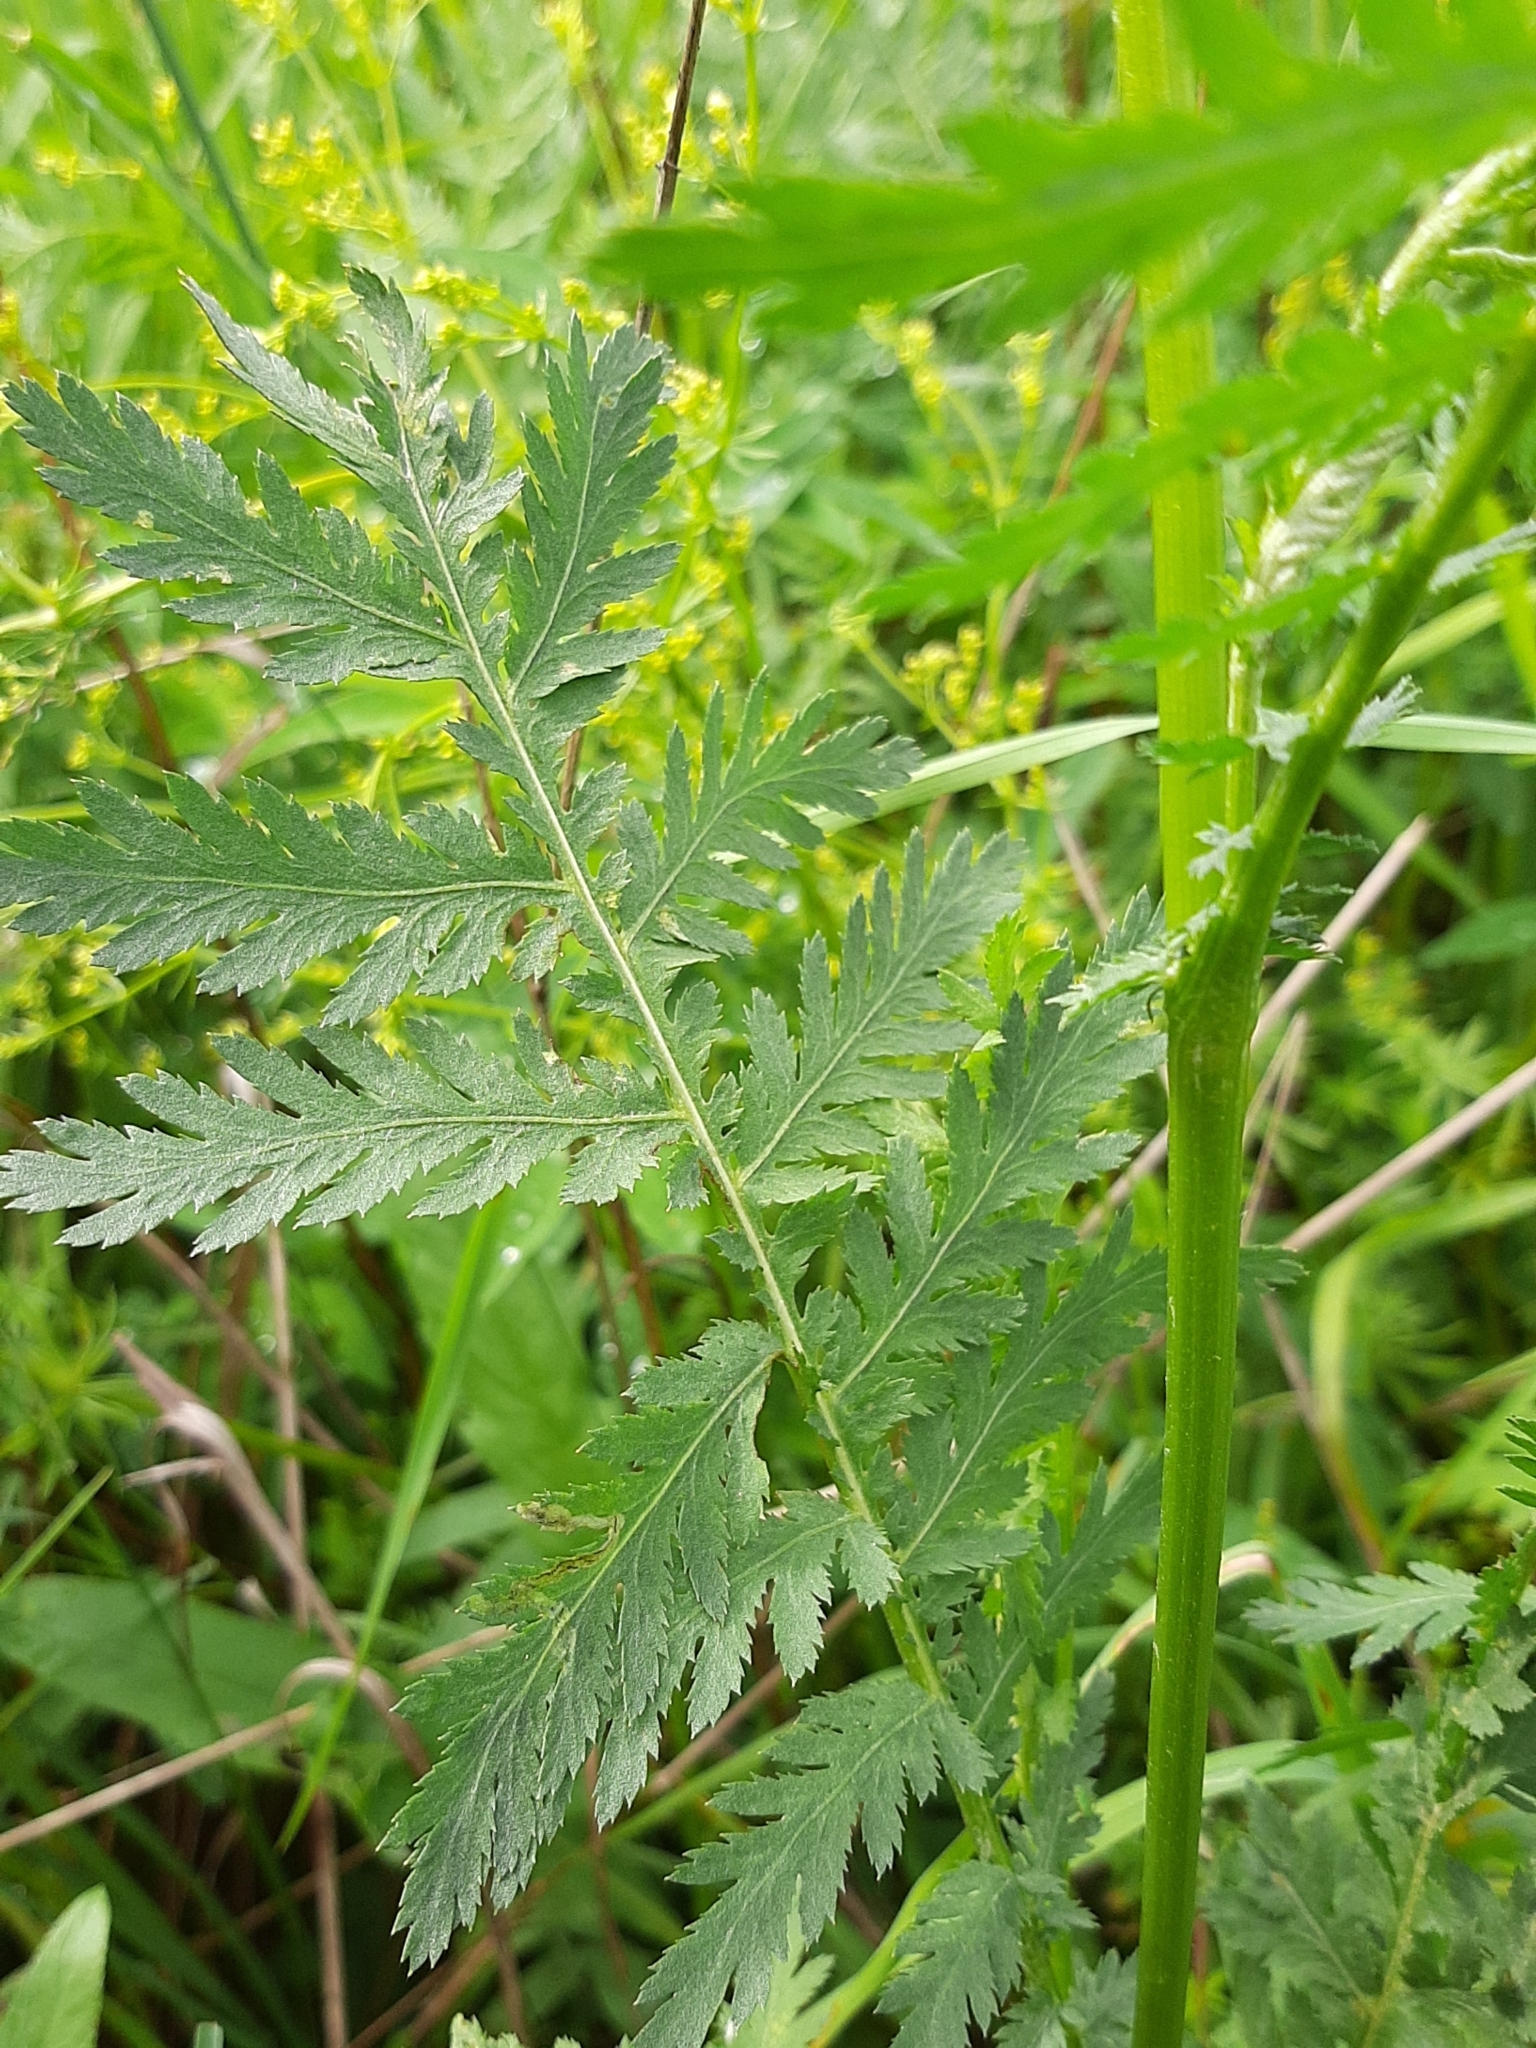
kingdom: Plantae
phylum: Tracheophyta
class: Magnoliopsida
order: Asterales
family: Asteraceae
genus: Tanacetum
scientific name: Tanacetum vulgare
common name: Common tansy
